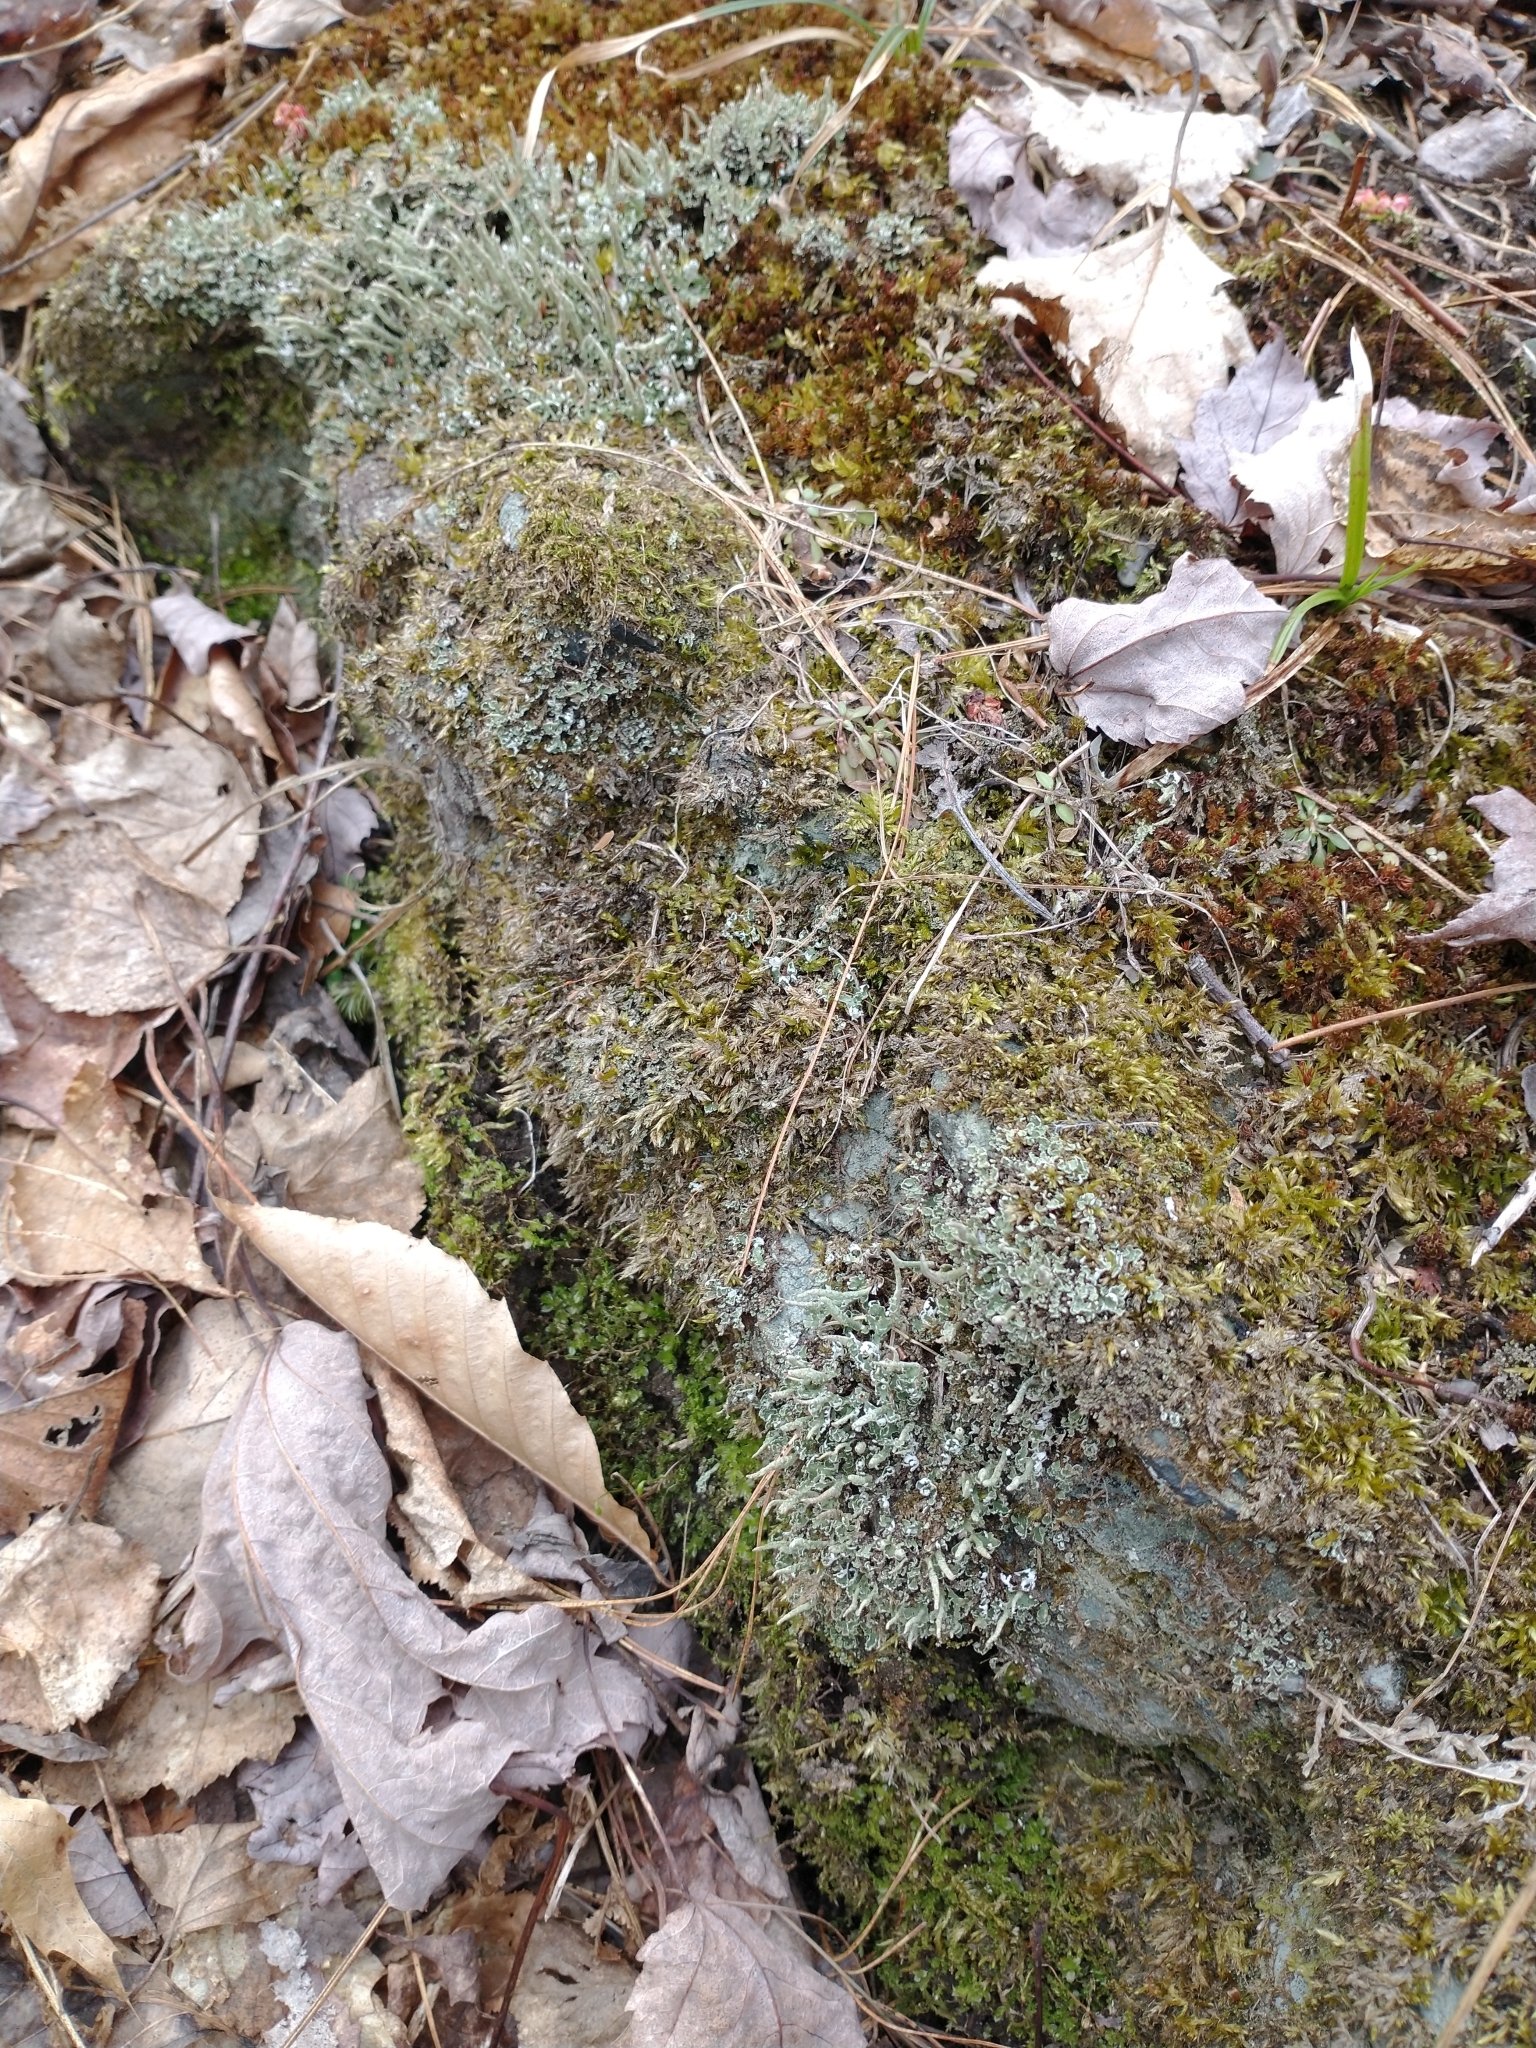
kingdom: Fungi
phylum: Ascomycota
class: Lecanoromycetes
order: Lecanorales
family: Cladoniaceae
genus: Cladonia
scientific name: Cladonia coniocraea
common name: Common powderhorn
